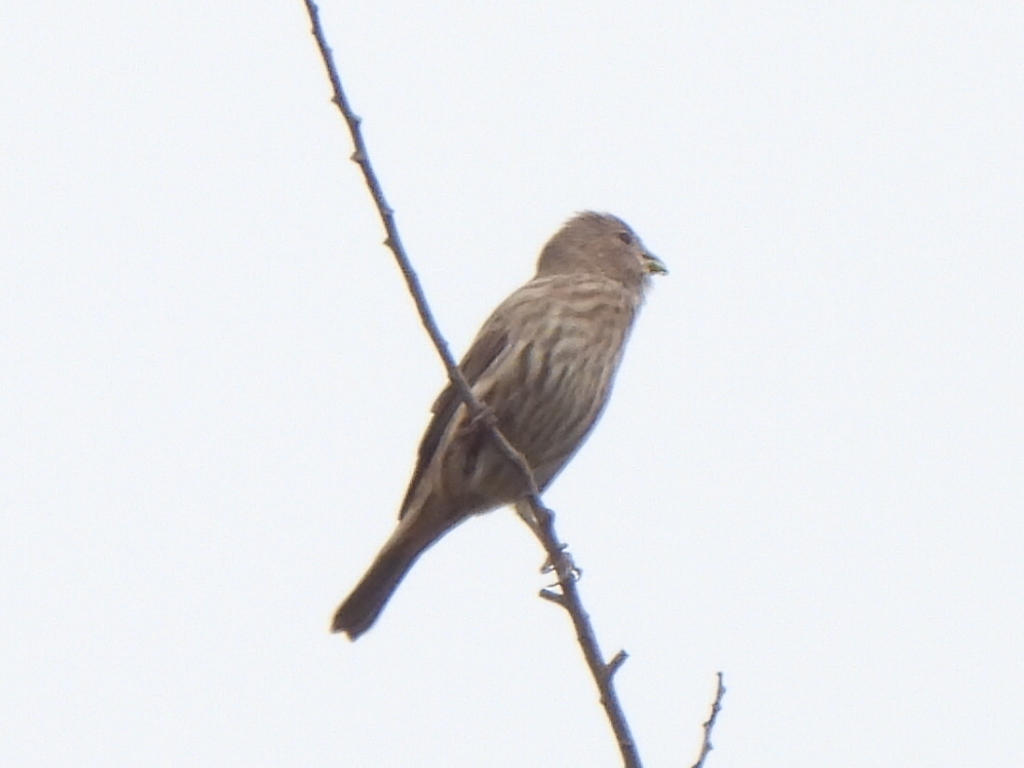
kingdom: Animalia
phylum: Chordata
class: Aves
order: Passeriformes
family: Fringillidae
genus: Haemorhous
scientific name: Haemorhous mexicanus
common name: House finch
